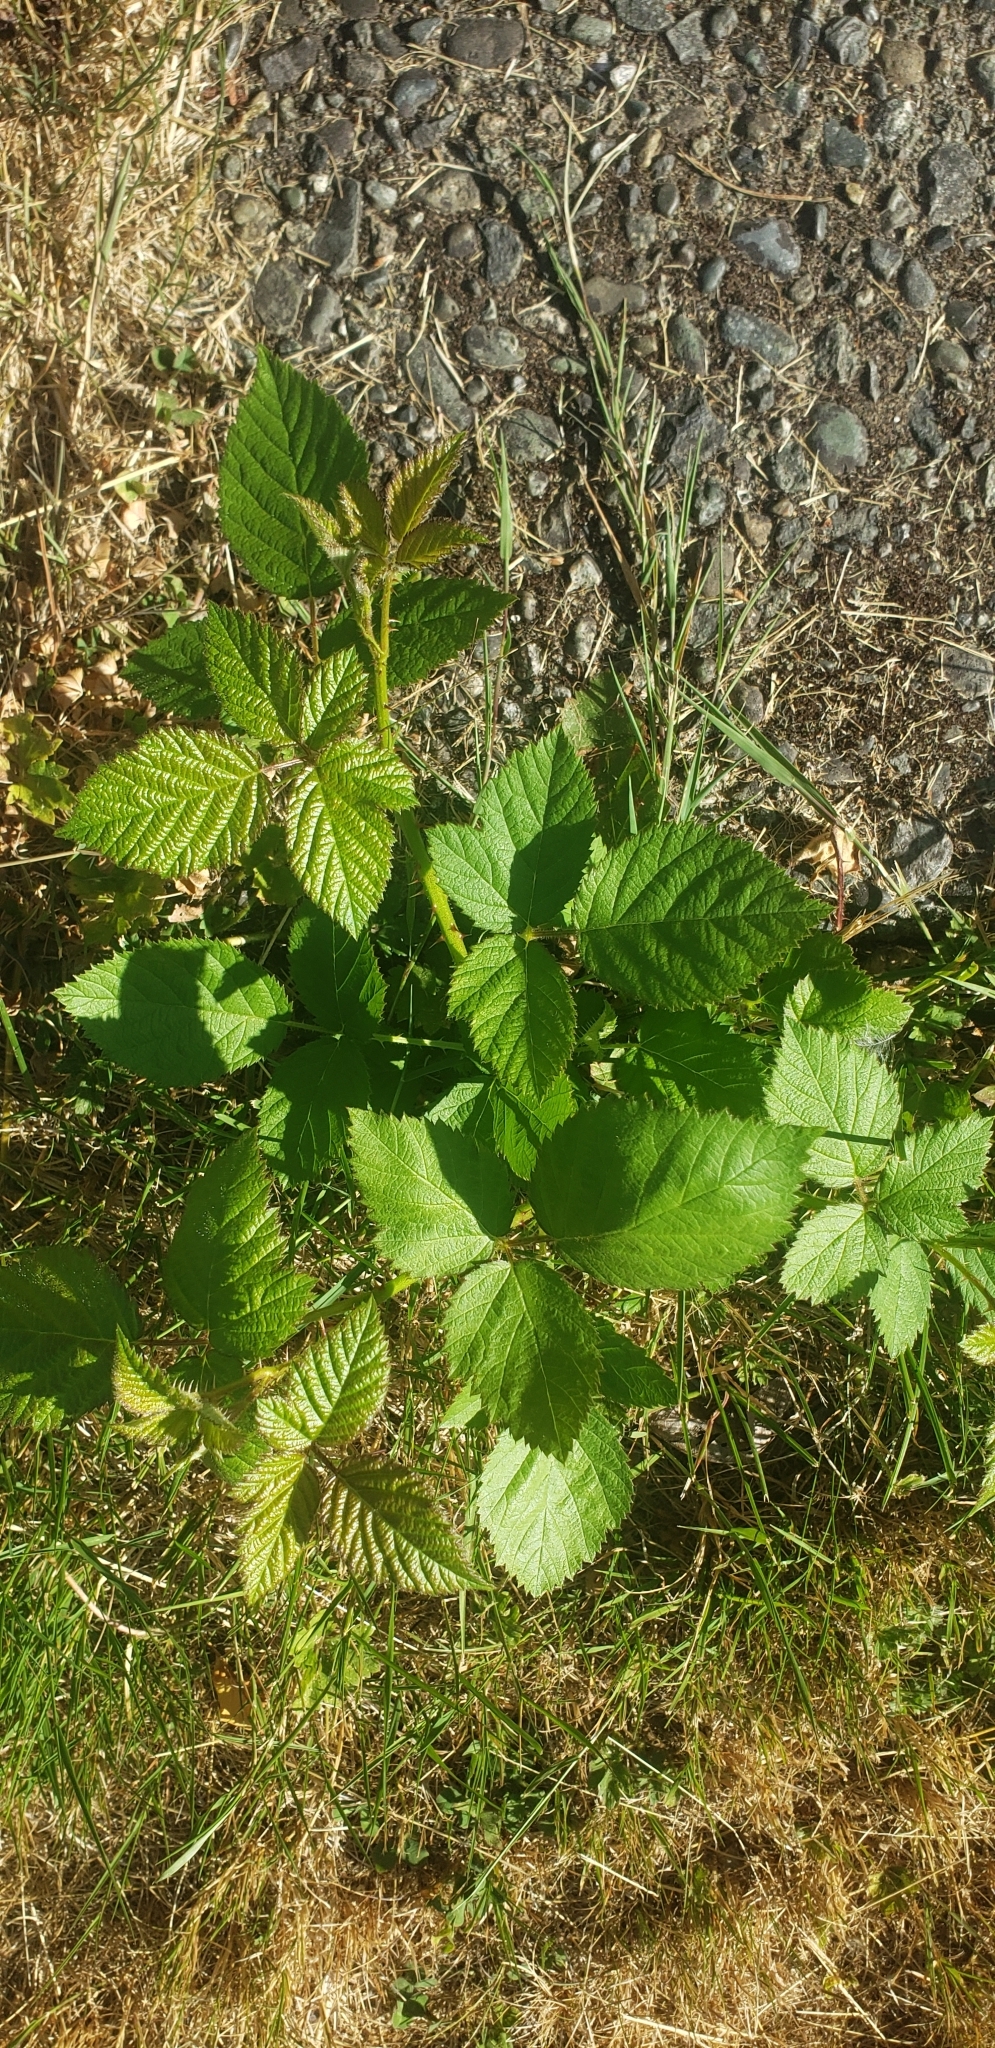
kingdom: Plantae
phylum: Tracheophyta
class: Magnoliopsida
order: Rosales
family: Rosaceae
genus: Rubus
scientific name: Rubus armeniacus
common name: Himalayan blackberry
